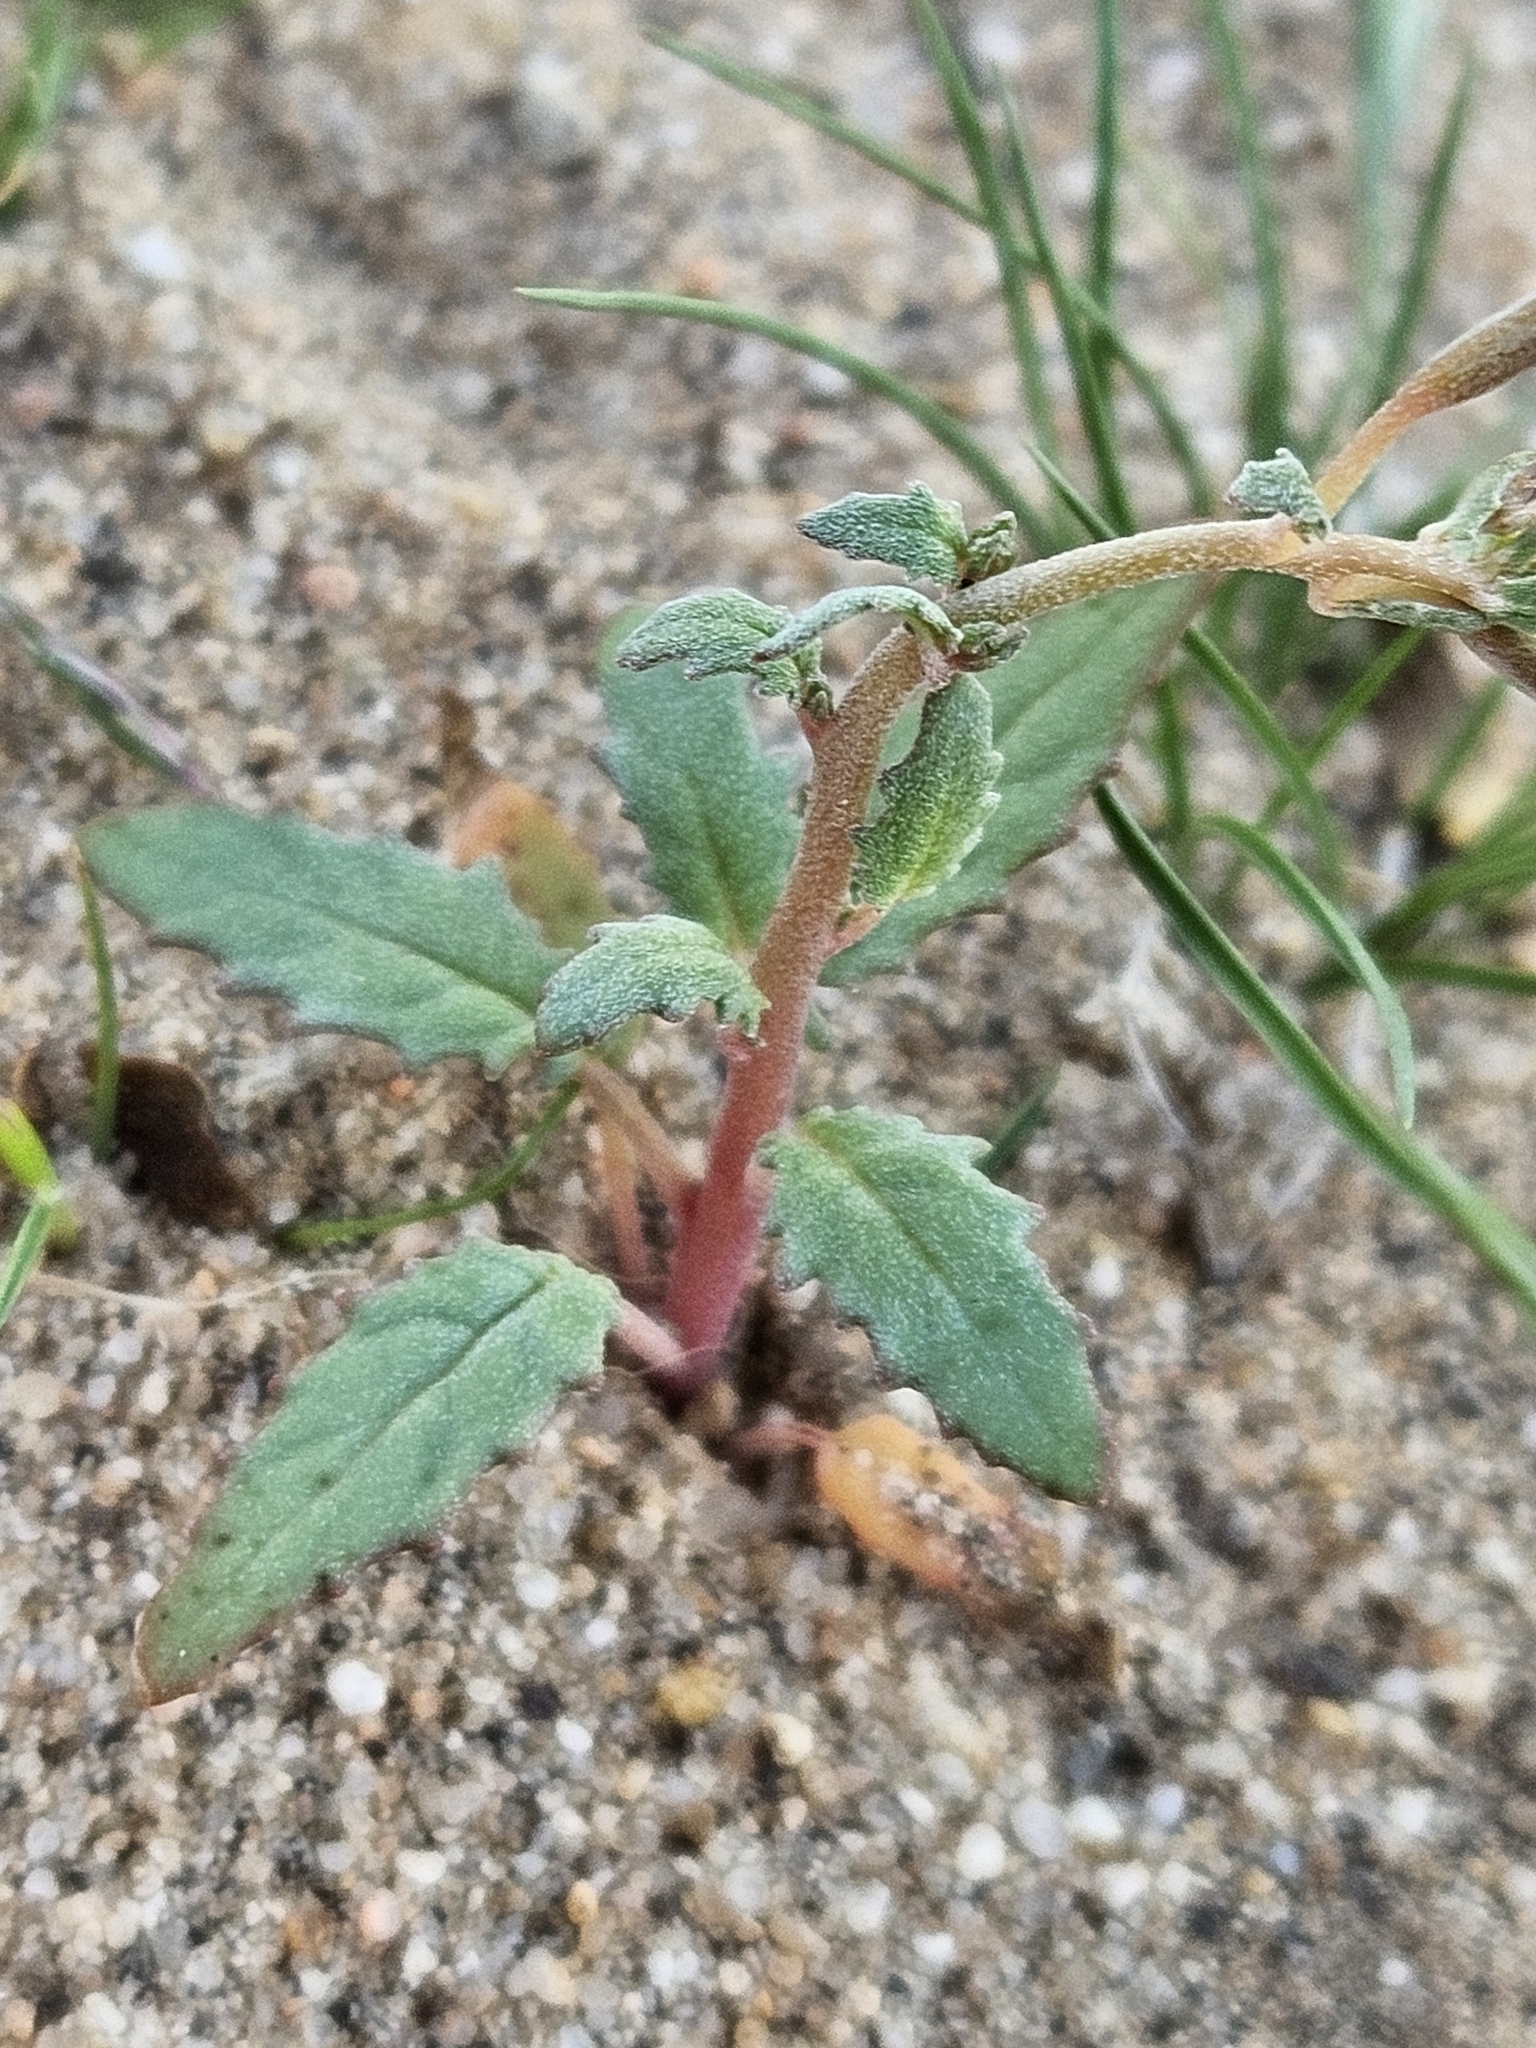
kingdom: Plantae
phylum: Tracheophyta
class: Magnoliopsida
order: Myrtales
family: Onagraceae
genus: Chylismia
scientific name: Chylismia claviformis
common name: Browneyes
